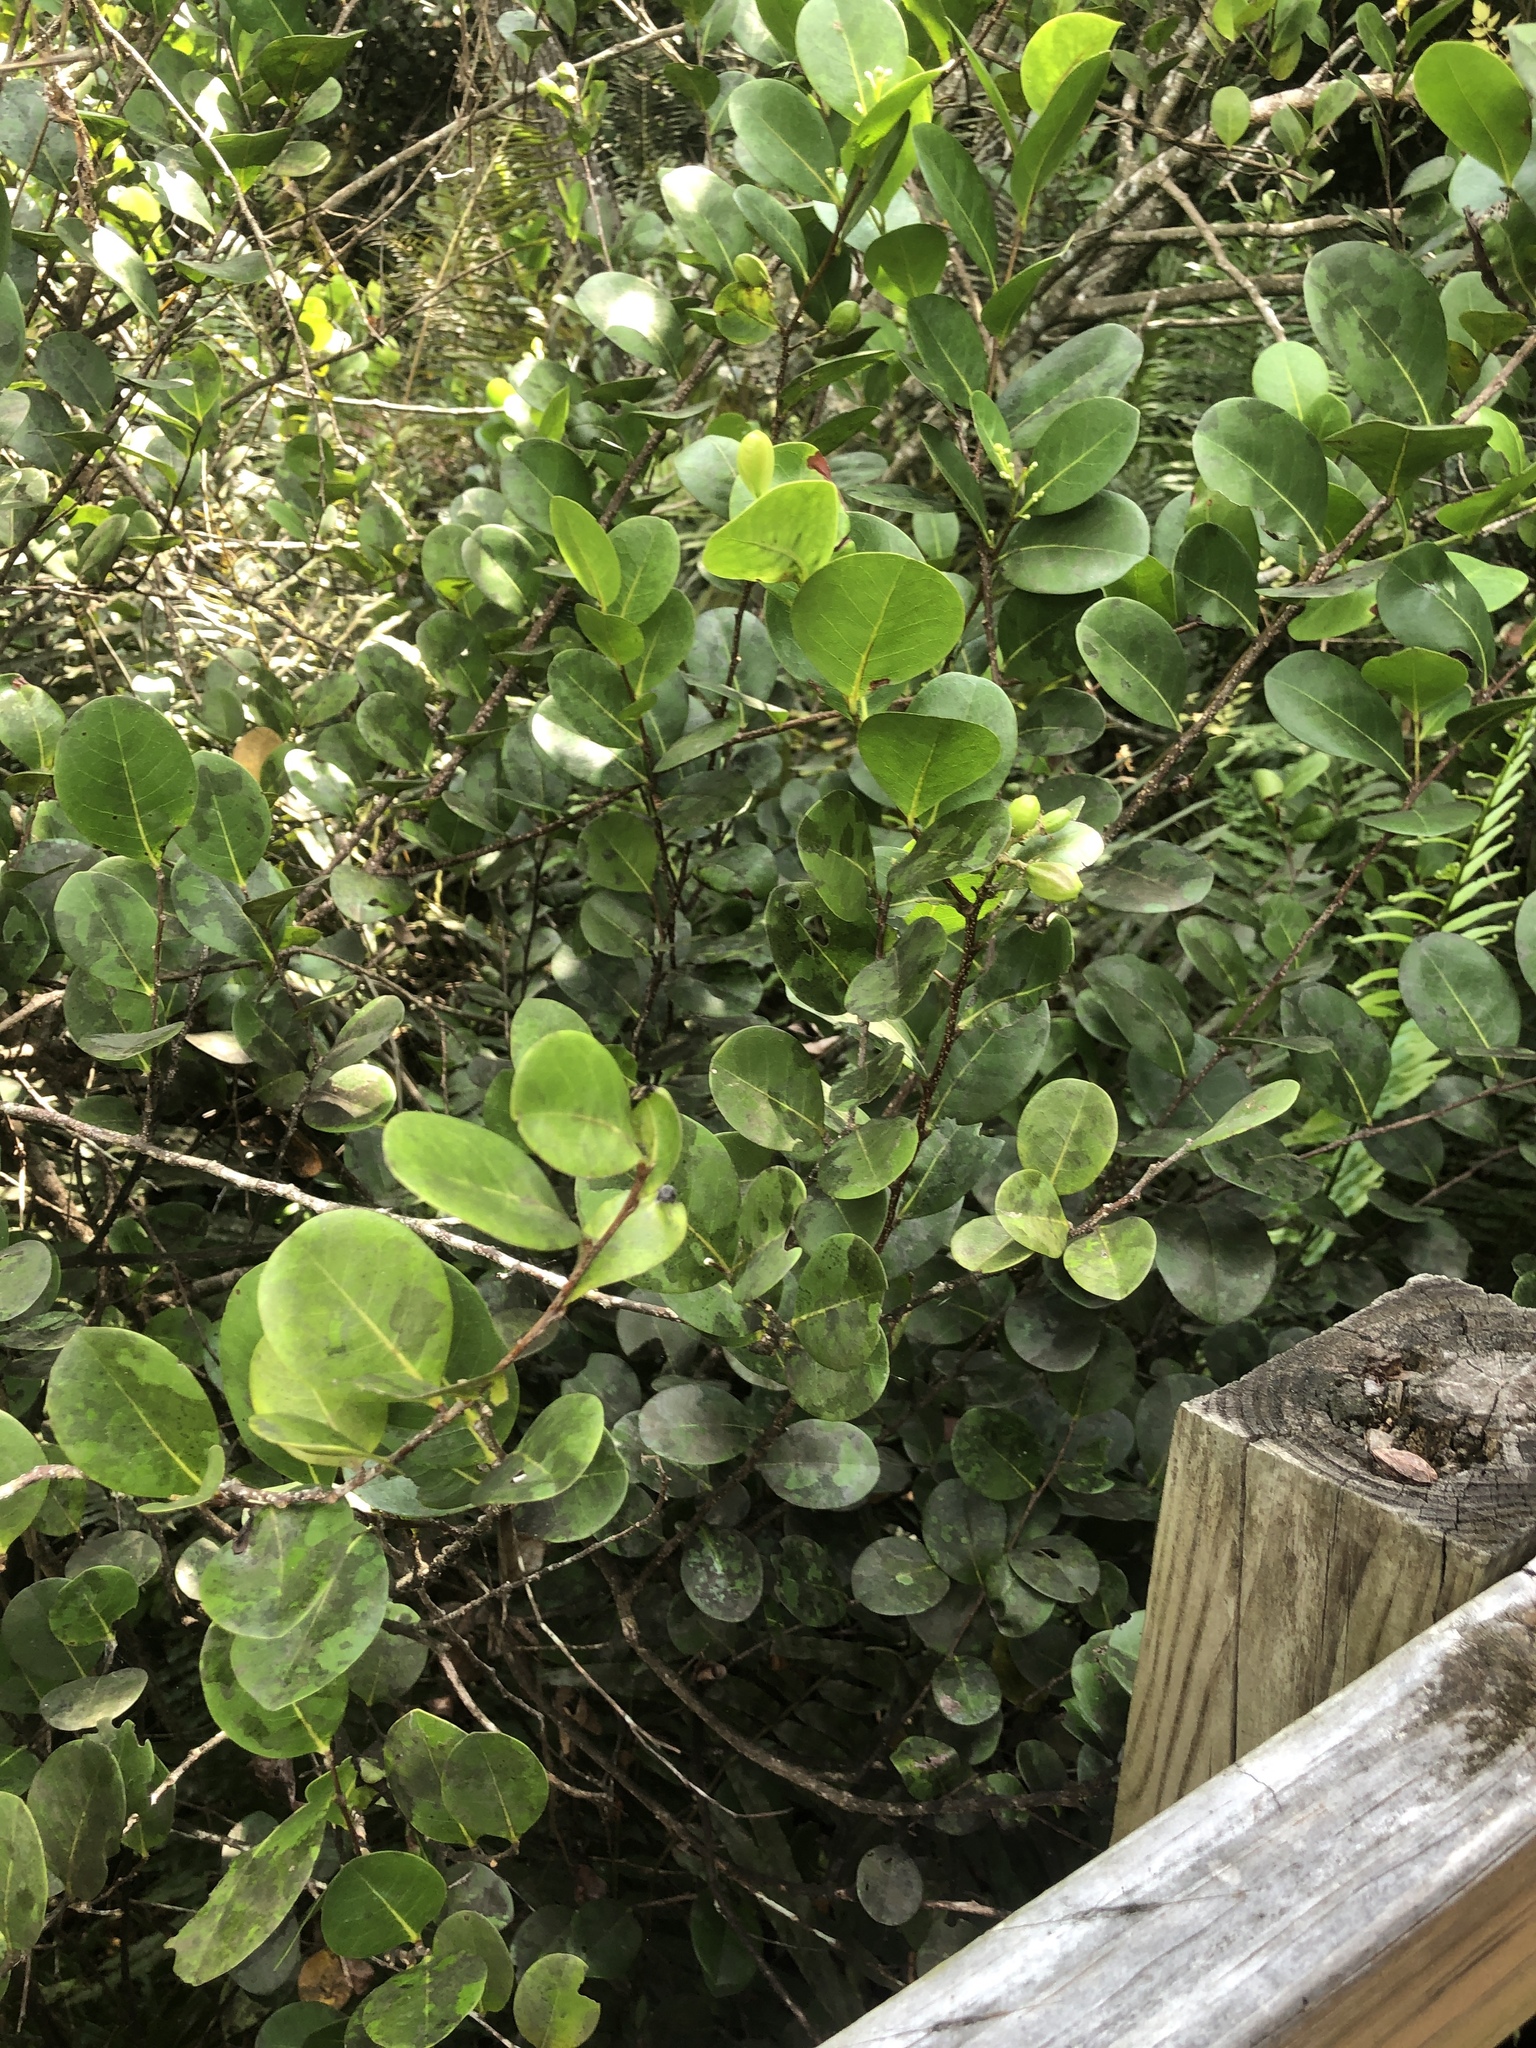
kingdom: Plantae
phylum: Tracheophyta
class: Magnoliopsida
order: Malpighiales
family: Chrysobalanaceae
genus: Chrysobalanus
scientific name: Chrysobalanus icaco
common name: Coco plum
